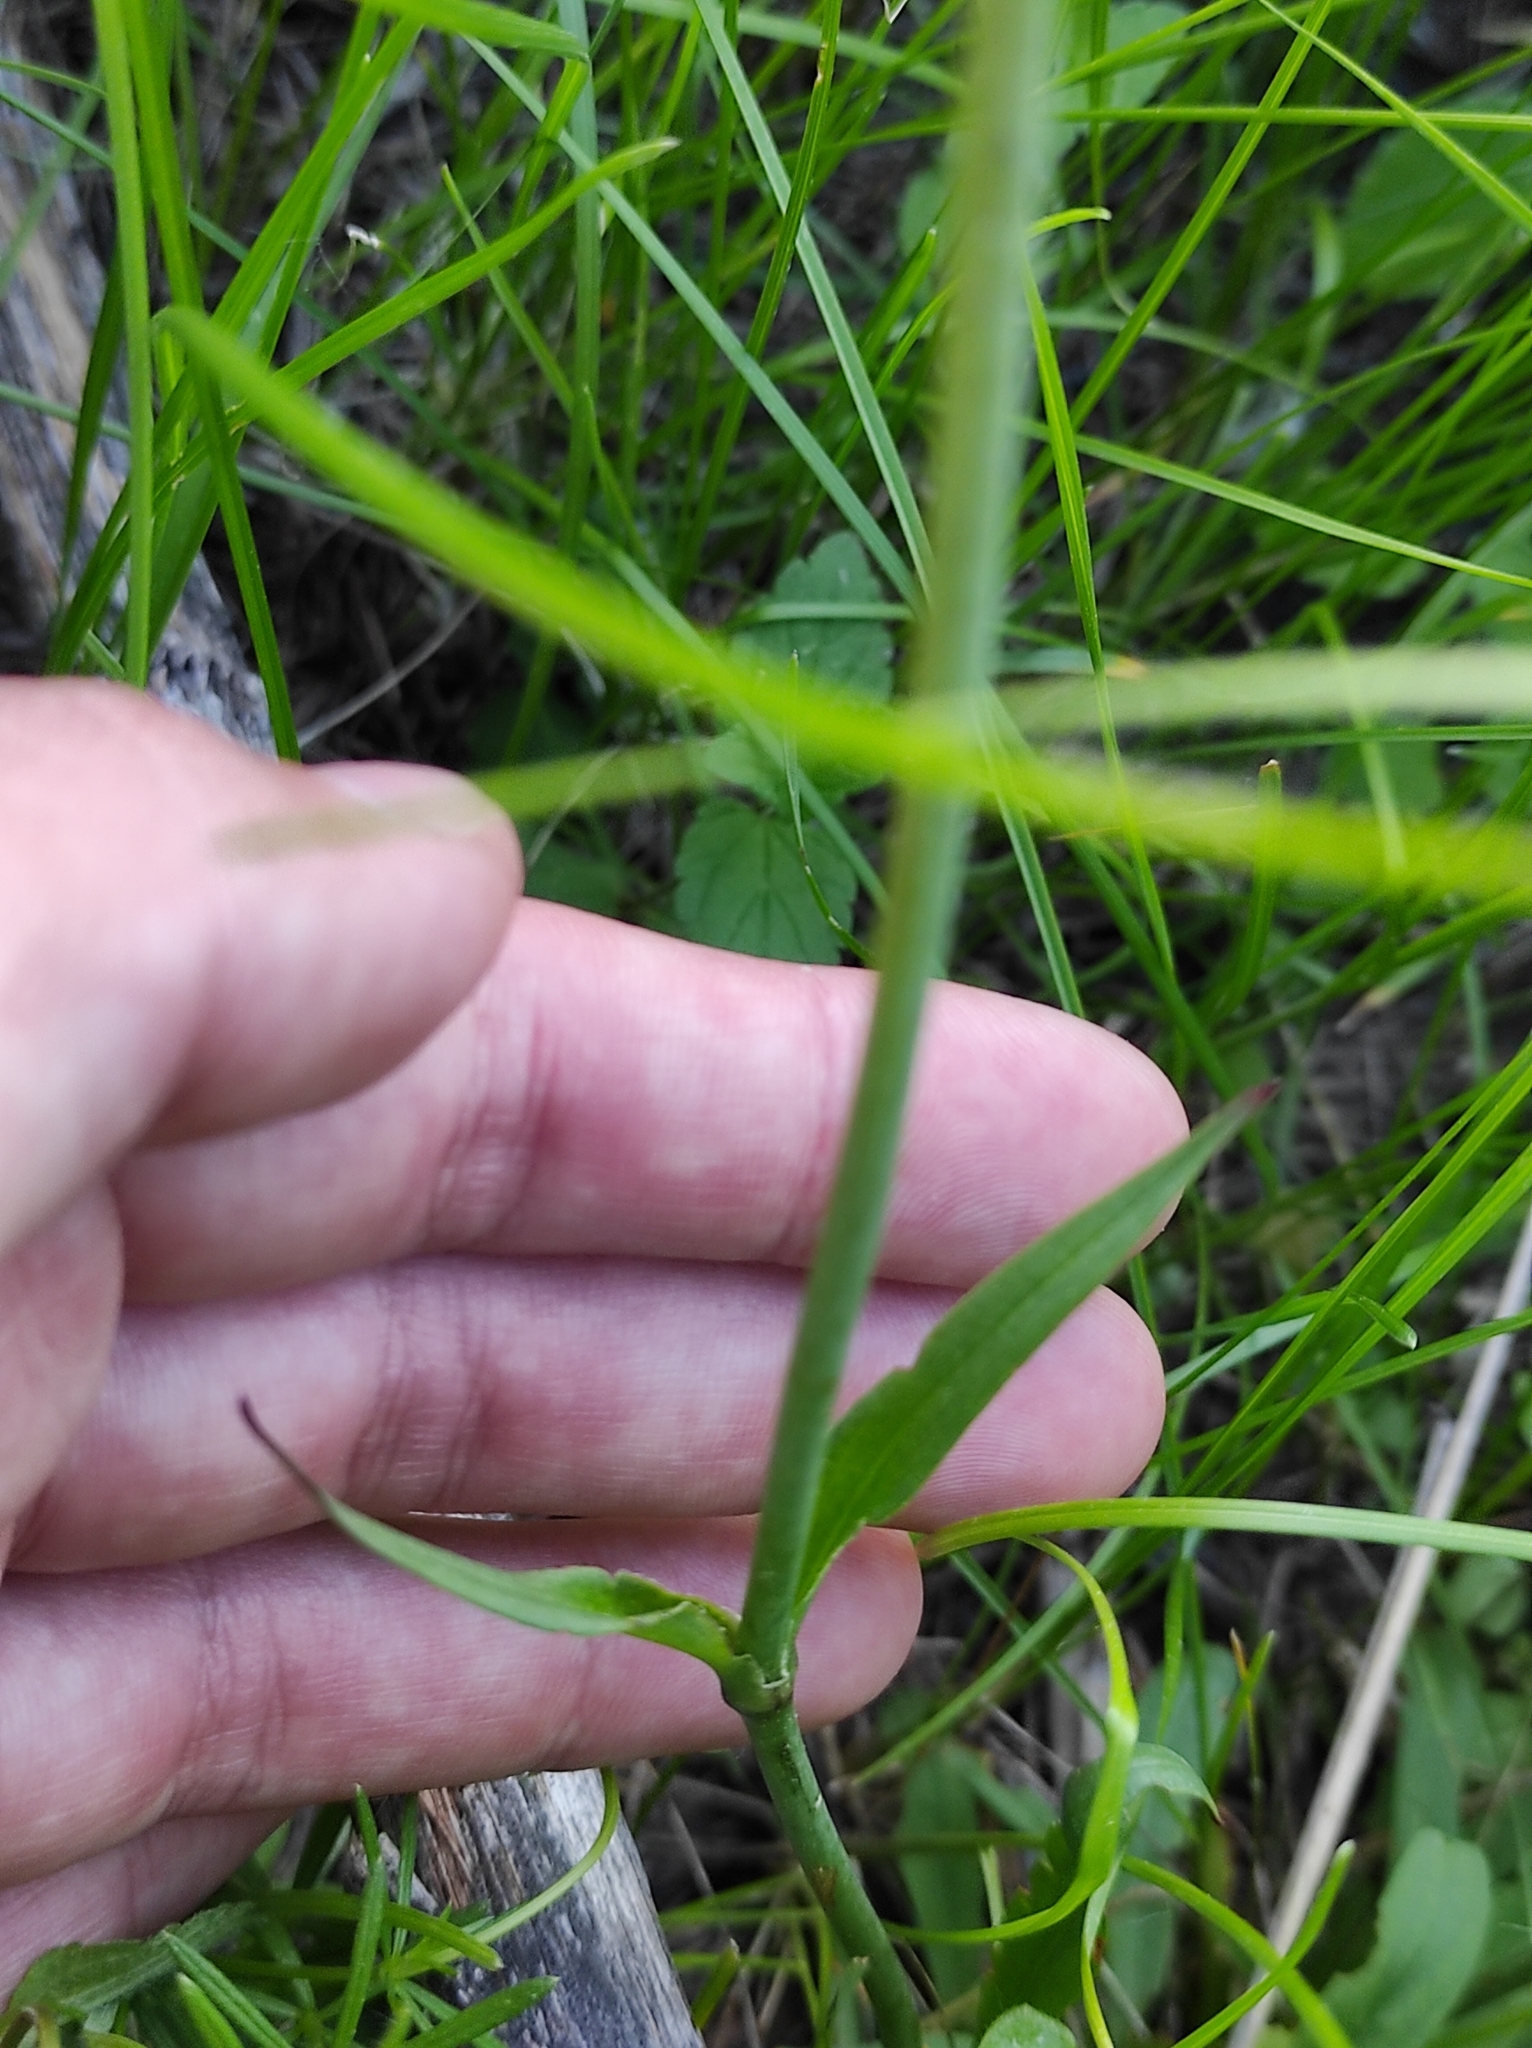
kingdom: Plantae
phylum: Tracheophyta
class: Magnoliopsida
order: Caryophyllales
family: Caryophyllaceae
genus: Viscaria
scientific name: Viscaria vulgaris
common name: Clammy campion
